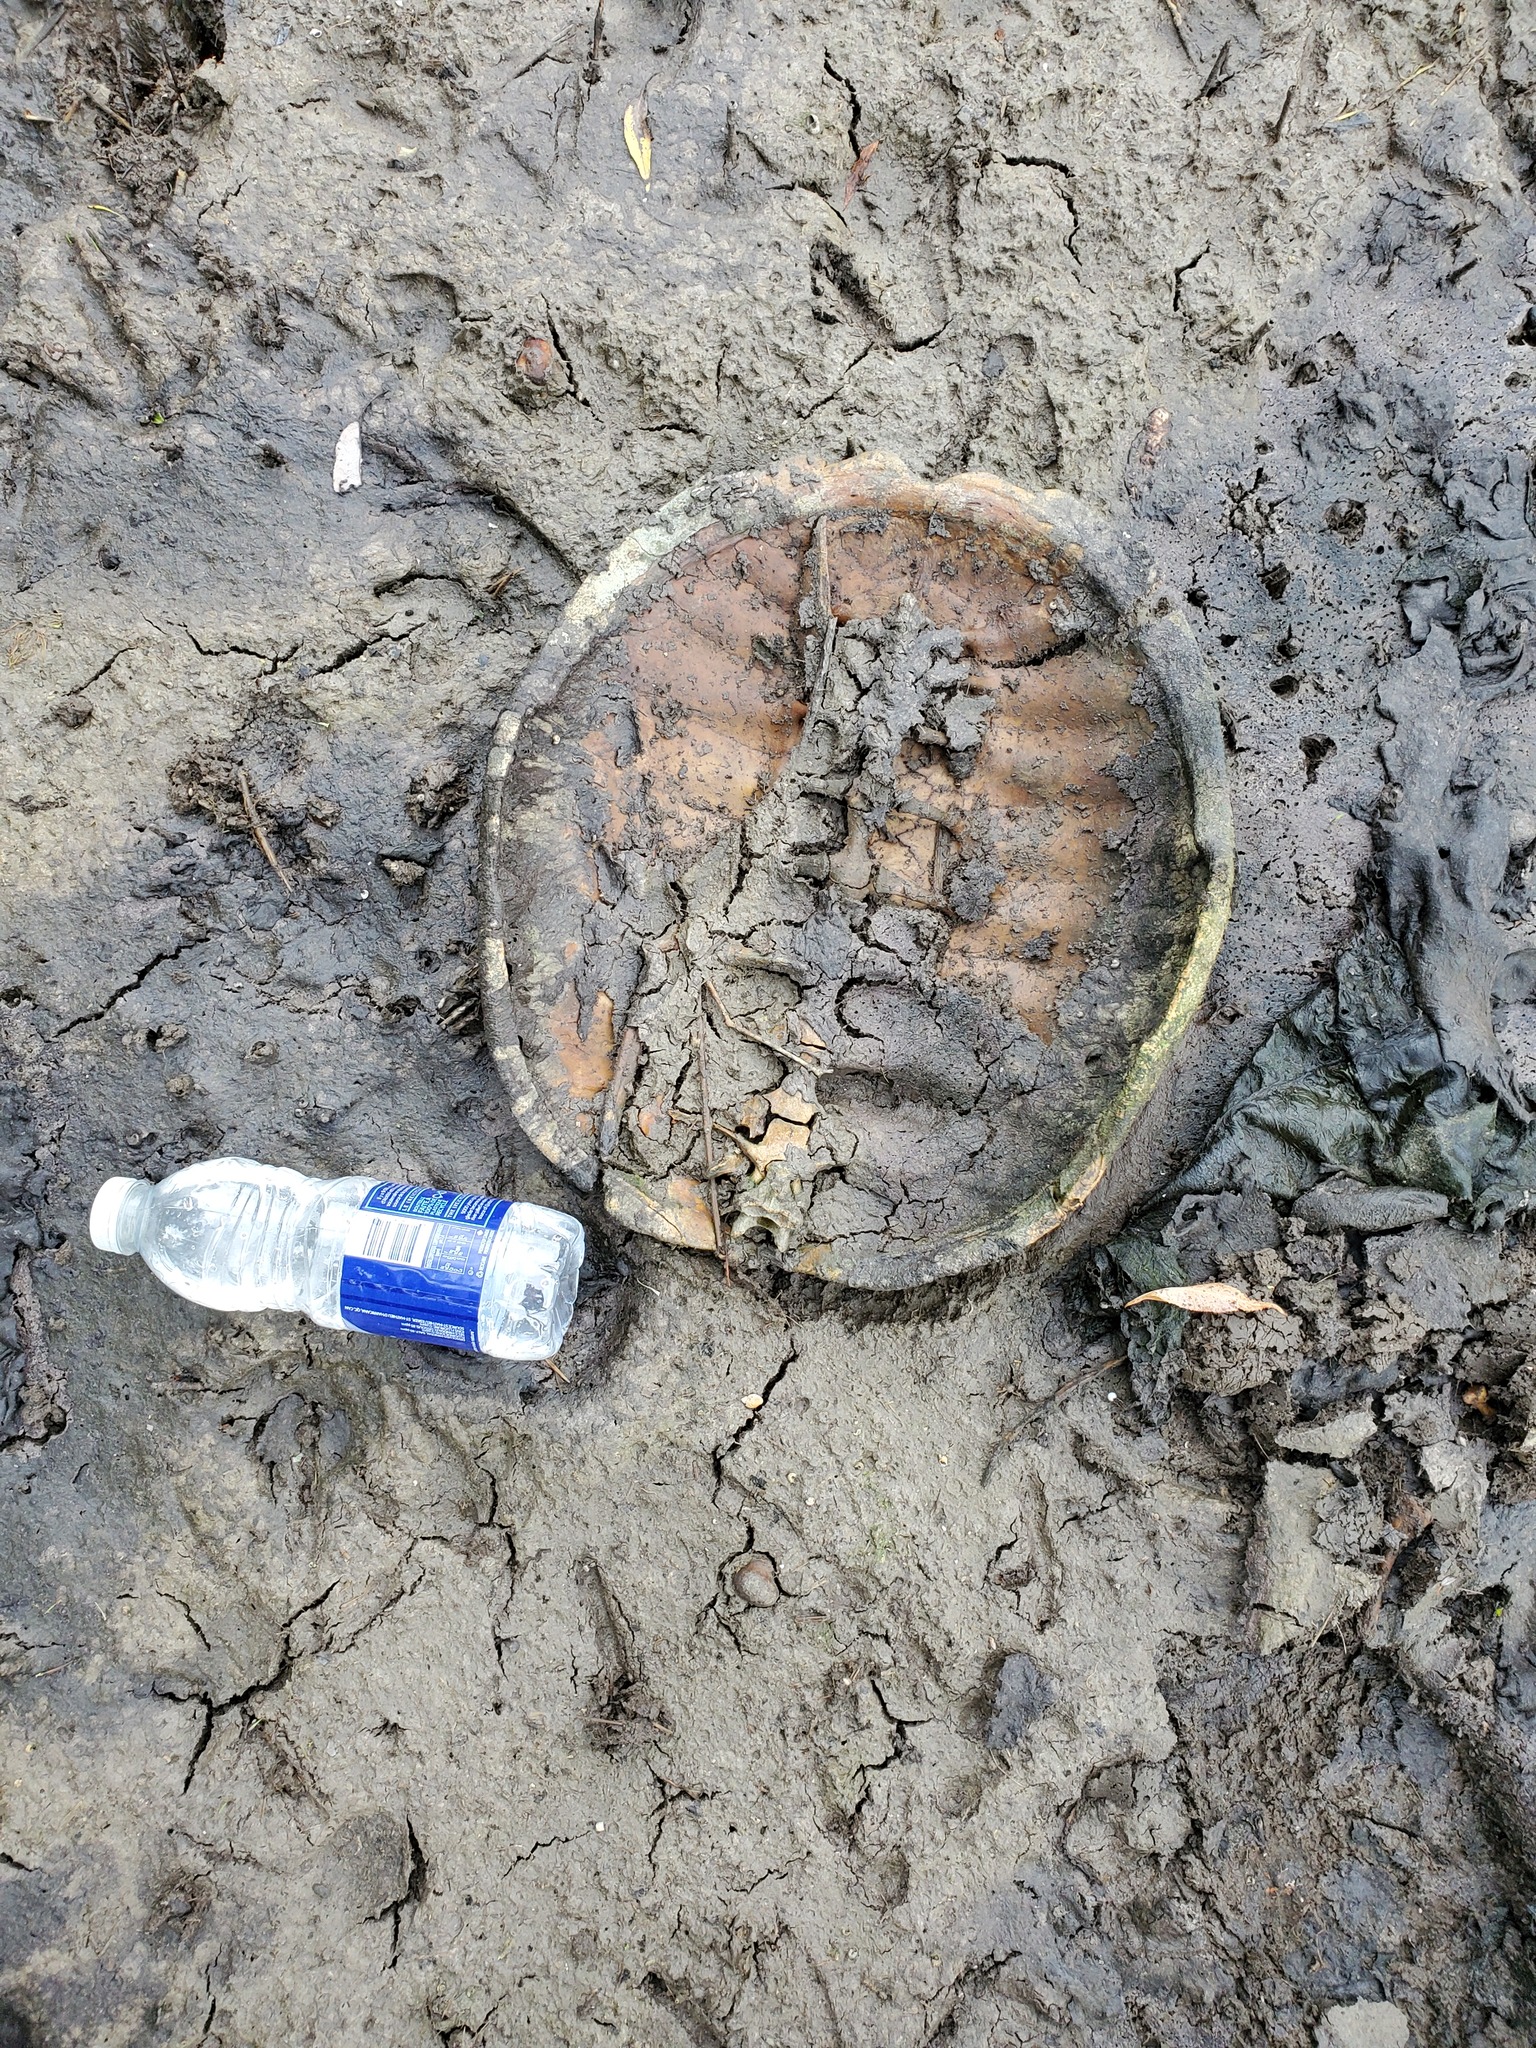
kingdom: Animalia
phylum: Chordata
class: Testudines
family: Chelydridae
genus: Chelydra
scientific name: Chelydra serpentina
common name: Common snapping turtle
